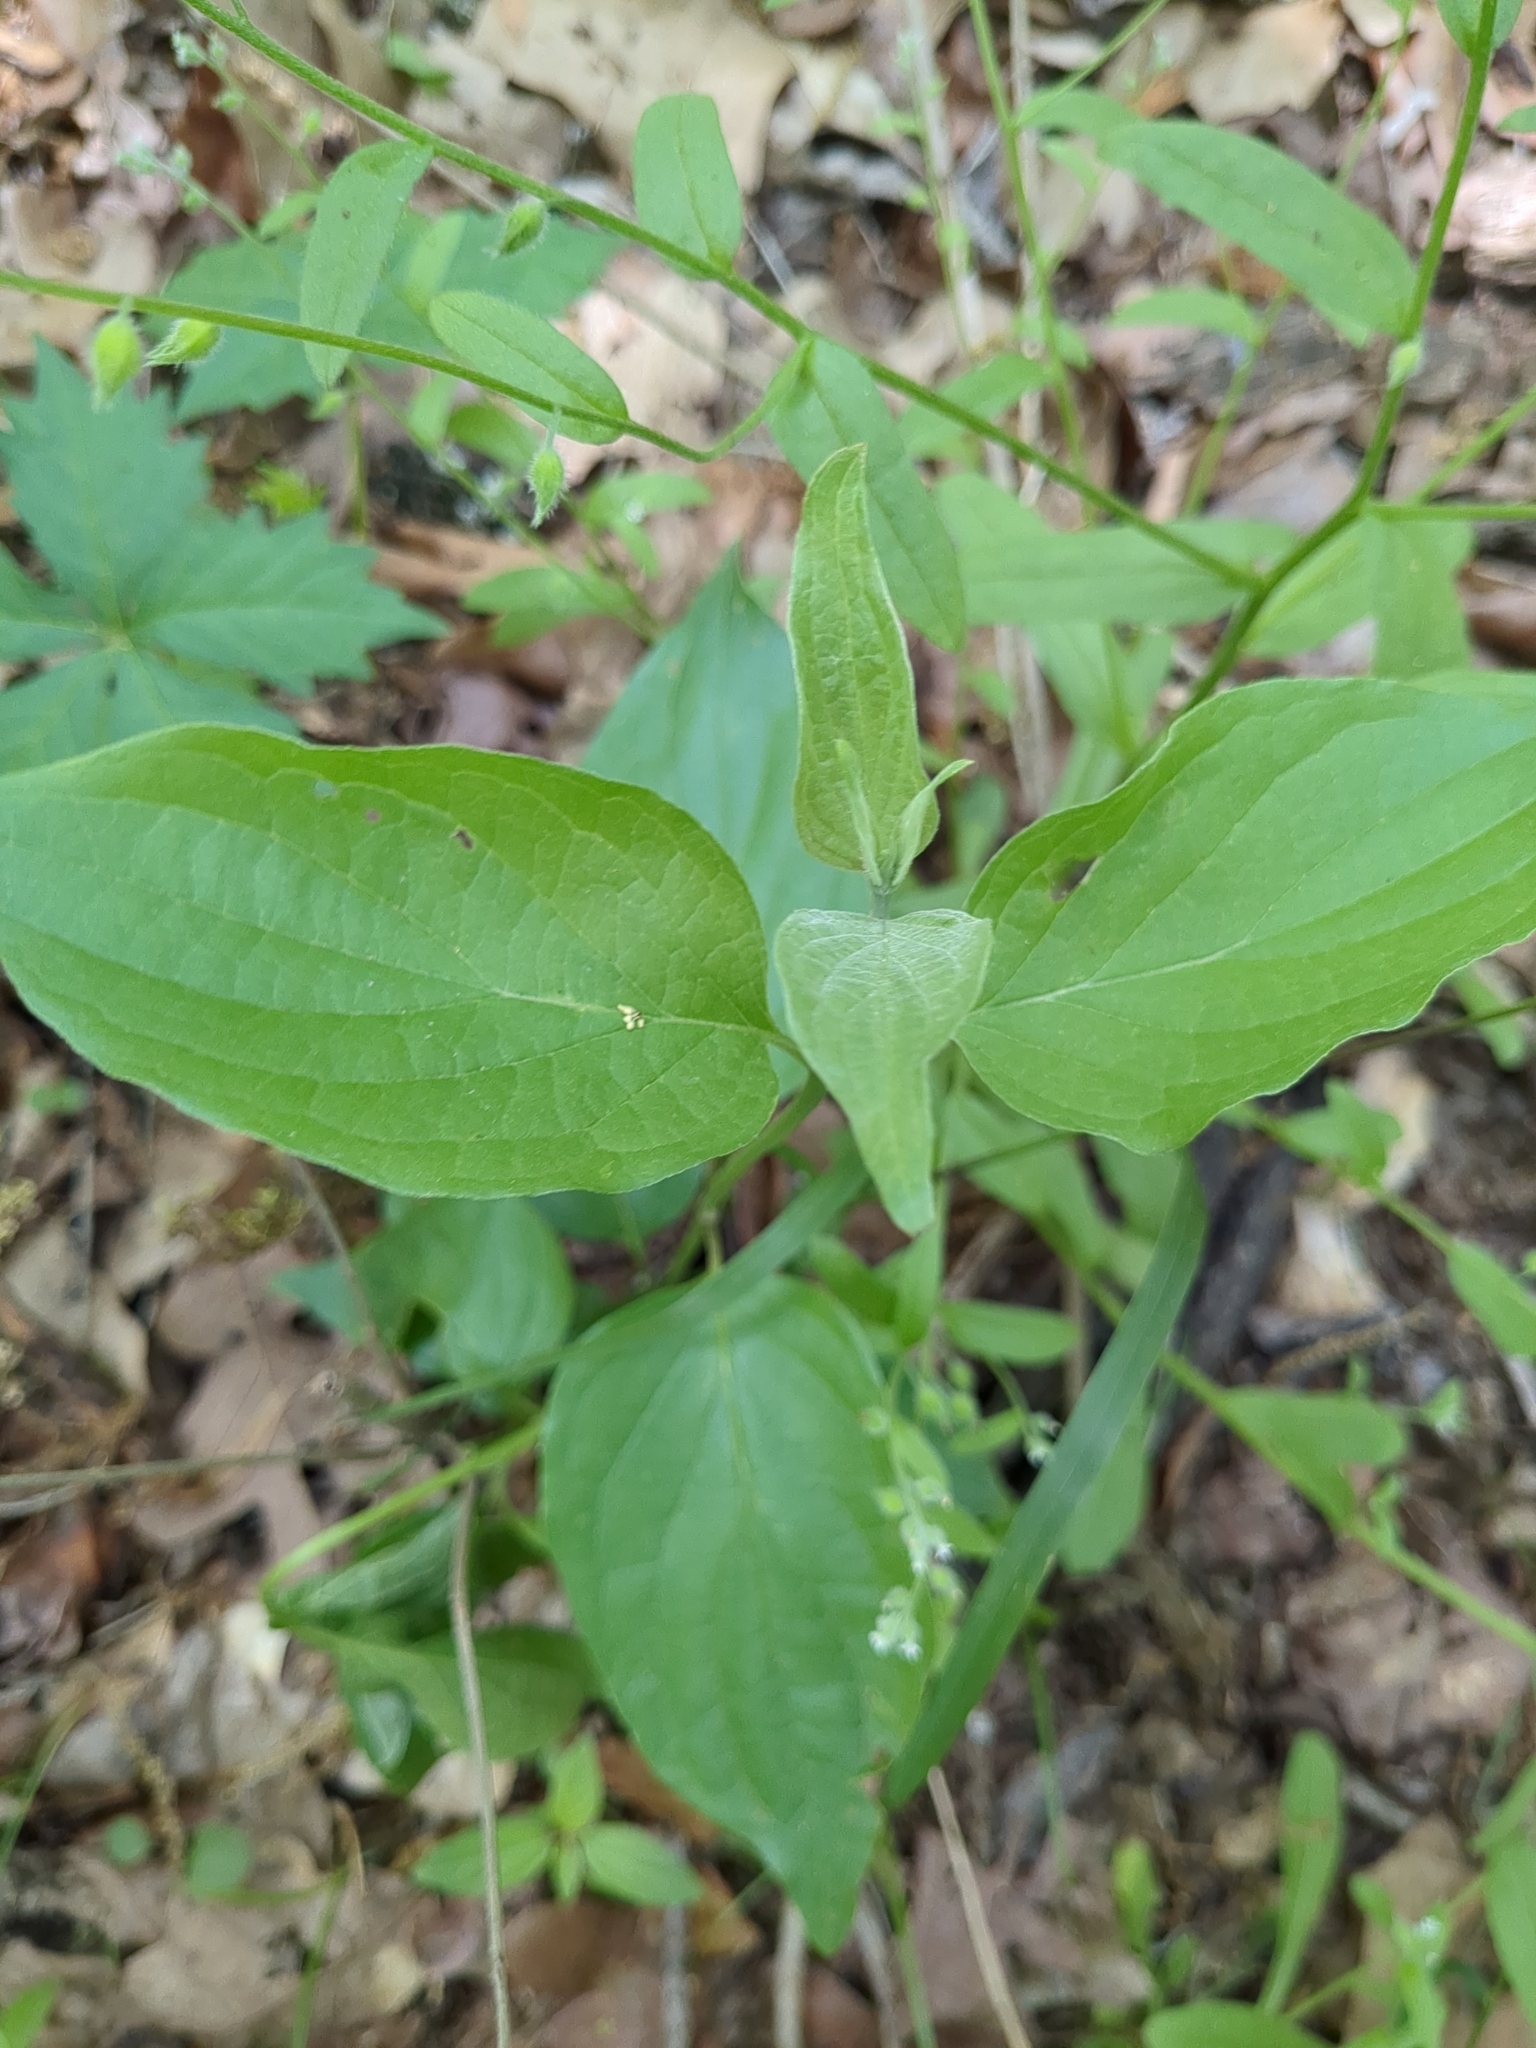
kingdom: Plantae
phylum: Tracheophyta
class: Magnoliopsida
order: Cornales
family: Cornaceae
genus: Cornus
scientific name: Cornus drummondii
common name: Rough-leaf dogwood
